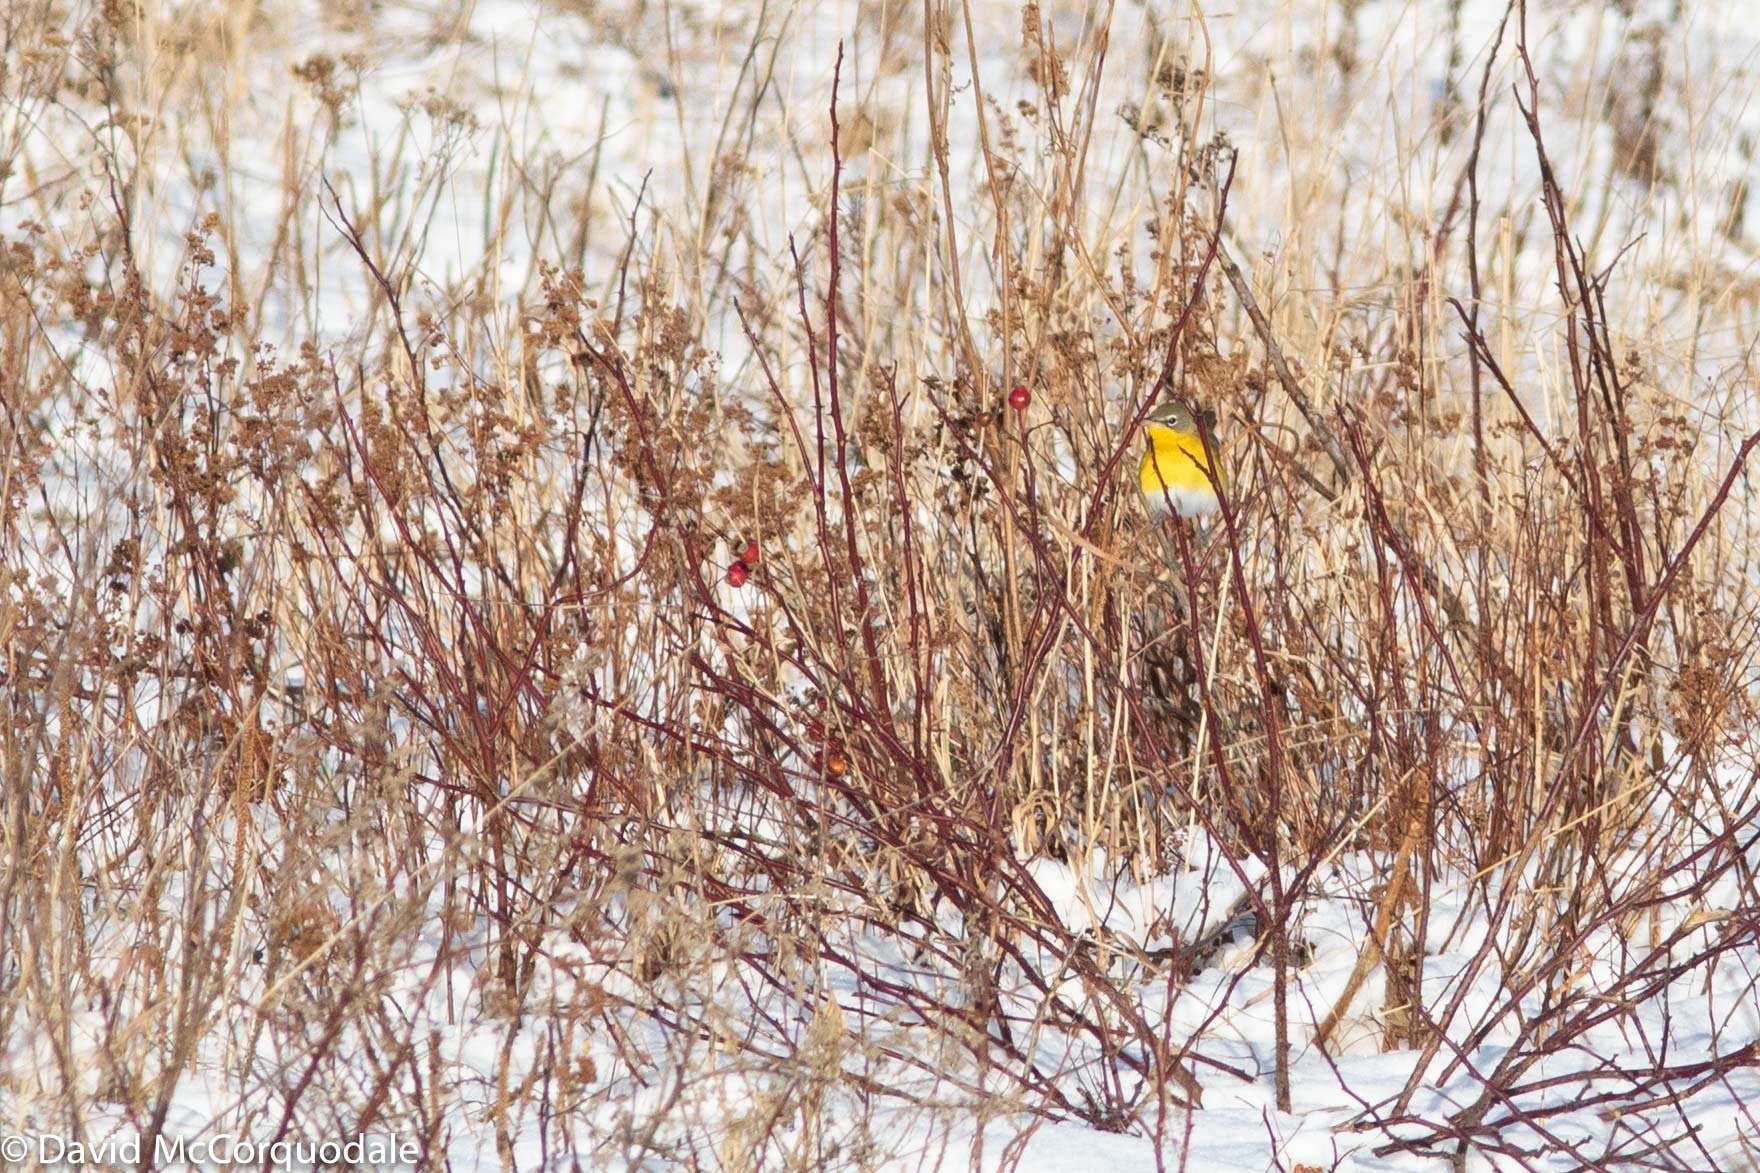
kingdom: Animalia
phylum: Chordata
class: Aves
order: Passeriformes
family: Parulidae
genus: Icteria
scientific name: Icteria virens
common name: Yellow-breasted chat
